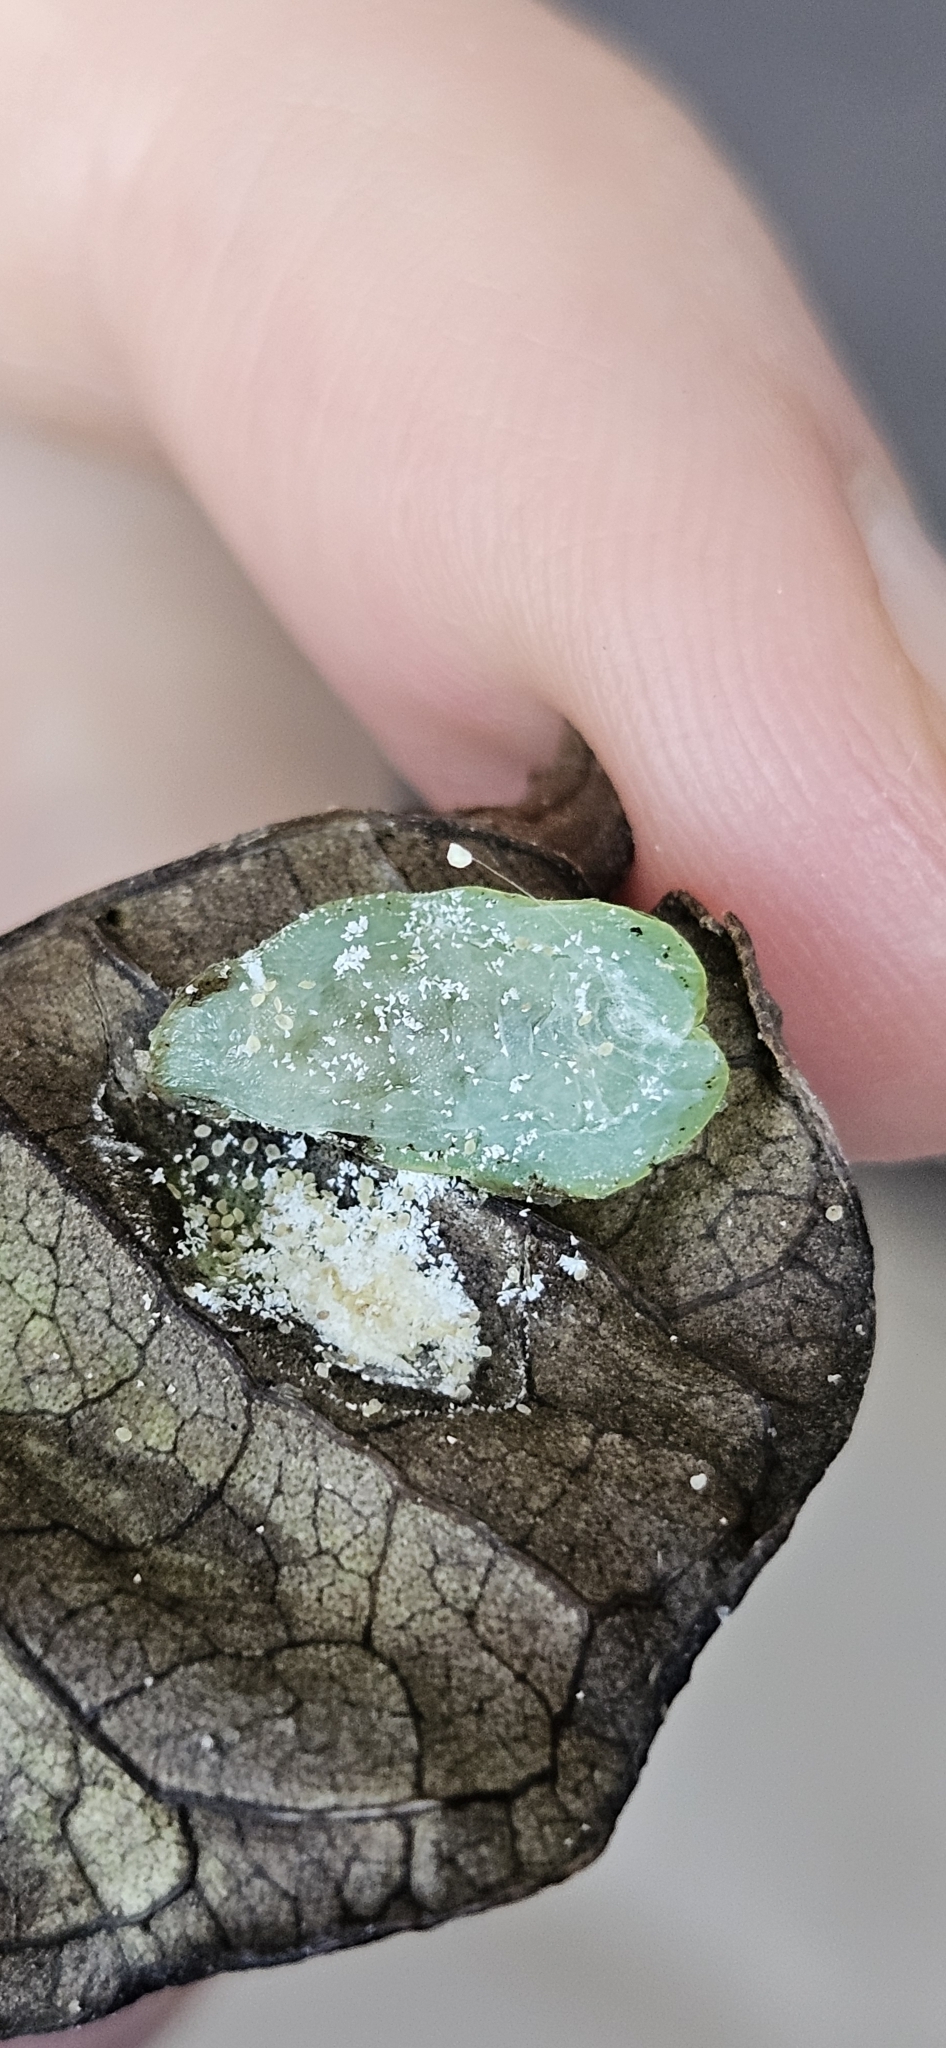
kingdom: Animalia
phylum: Arthropoda
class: Insecta
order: Hemiptera
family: Coccidae
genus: Ctenochiton
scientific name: Ctenochiton chelyon
